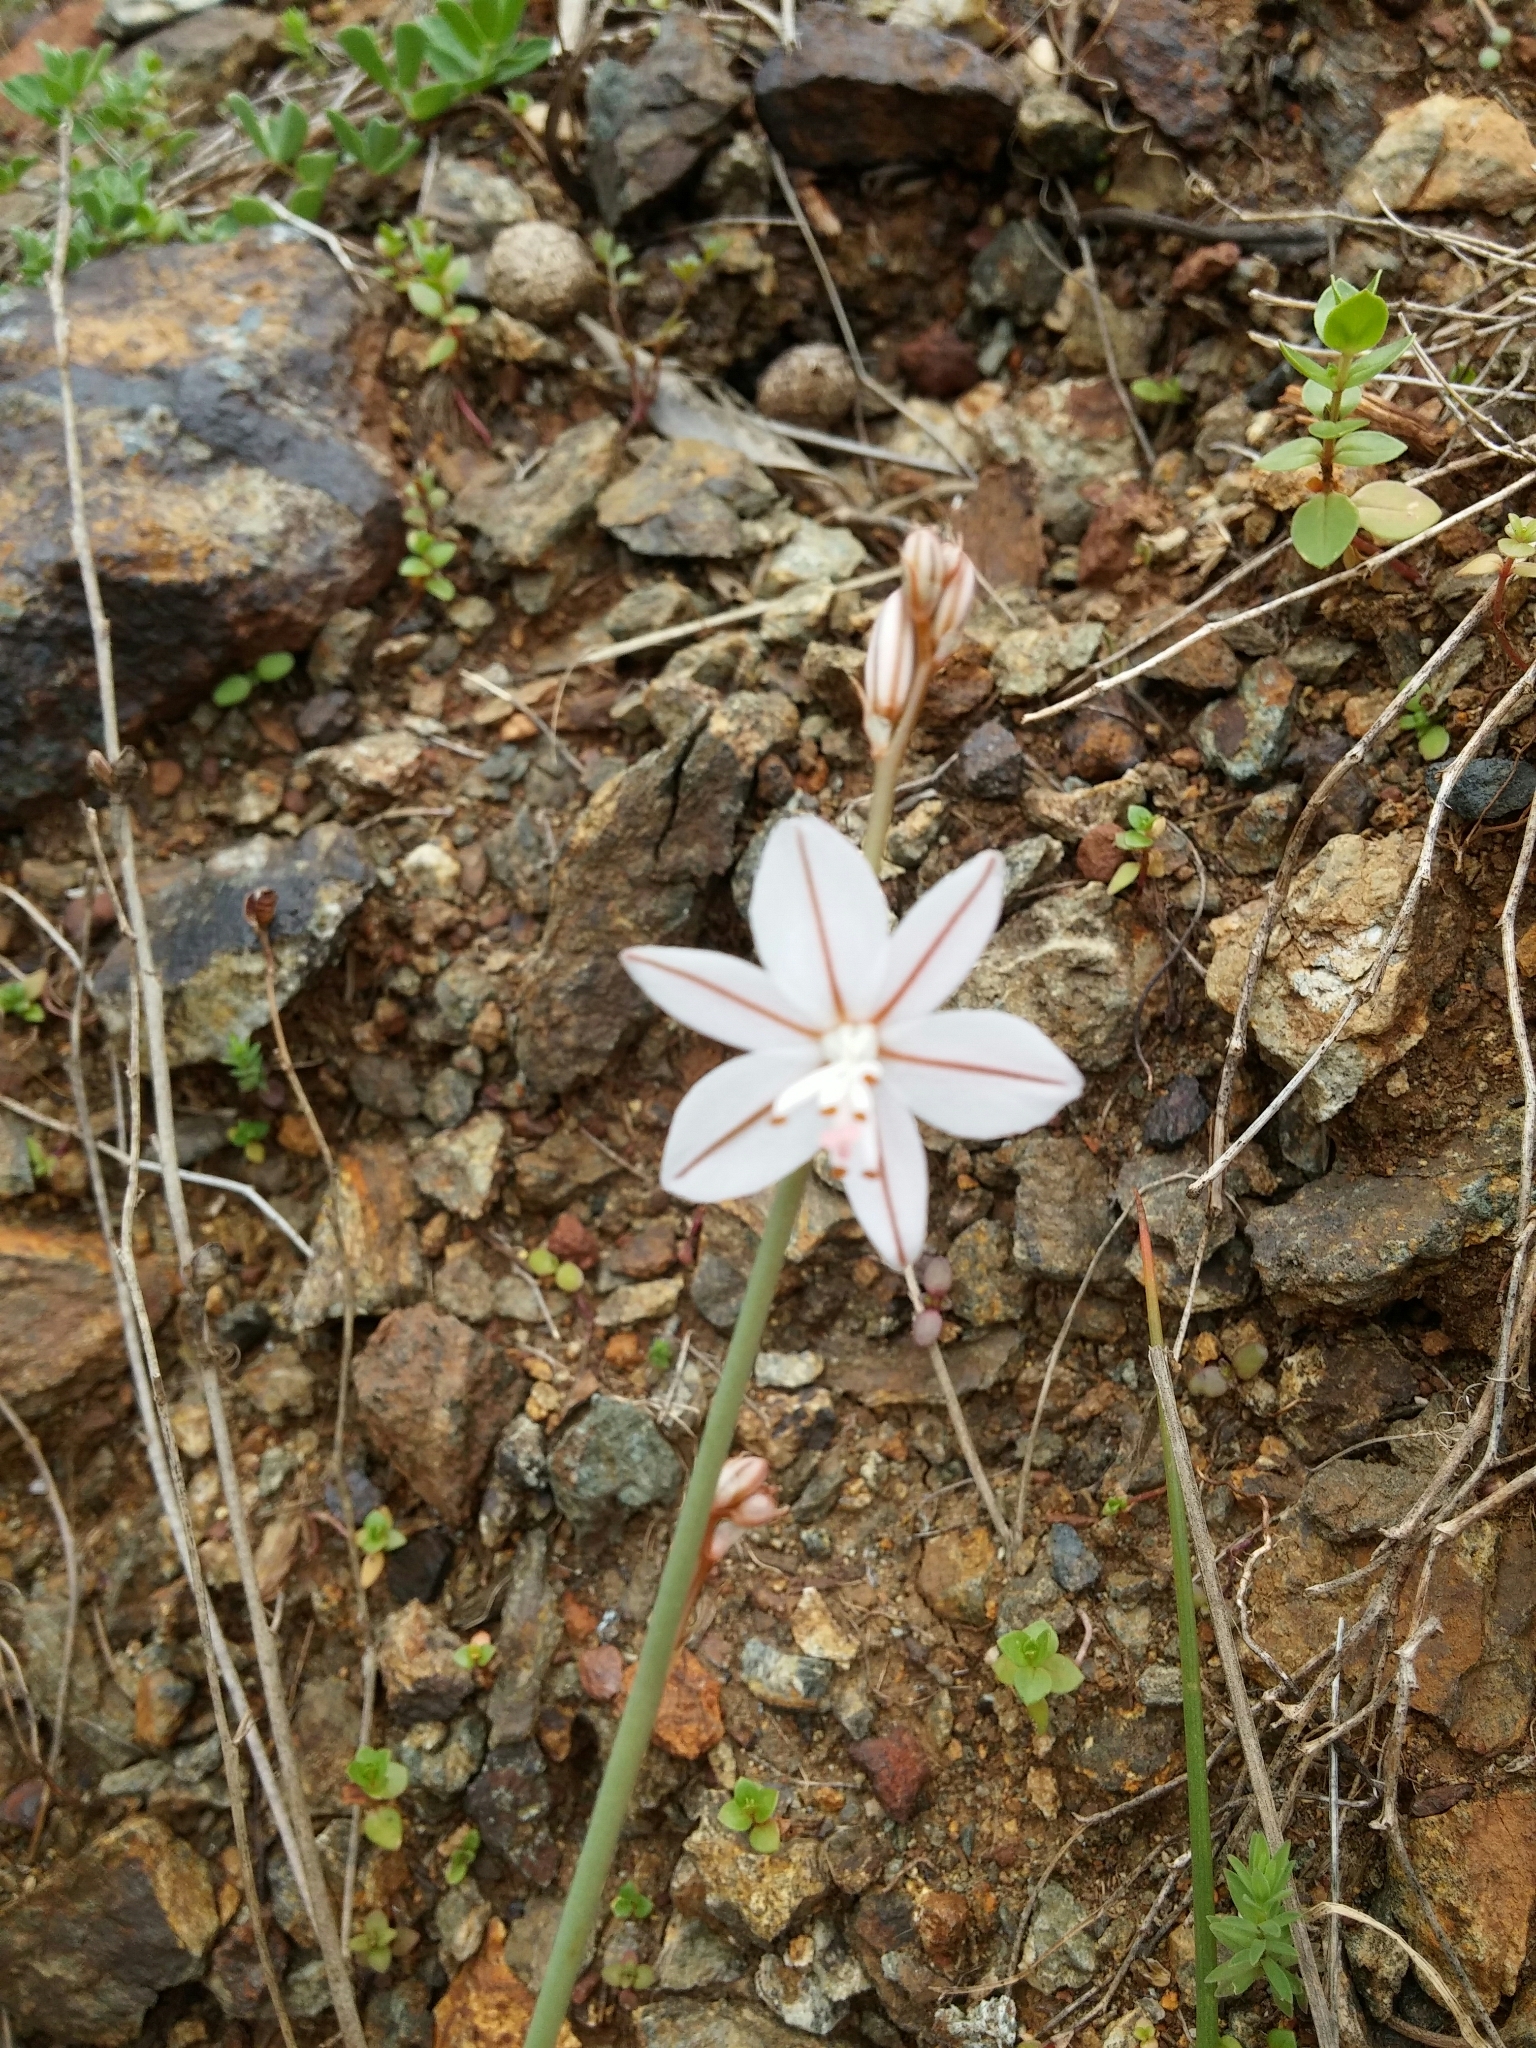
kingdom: Plantae
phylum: Tracheophyta
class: Liliopsida
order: Asparagales
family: Asphodelaceae
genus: Asphodelus
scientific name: Asphodelus fistulosus
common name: Onionweed
